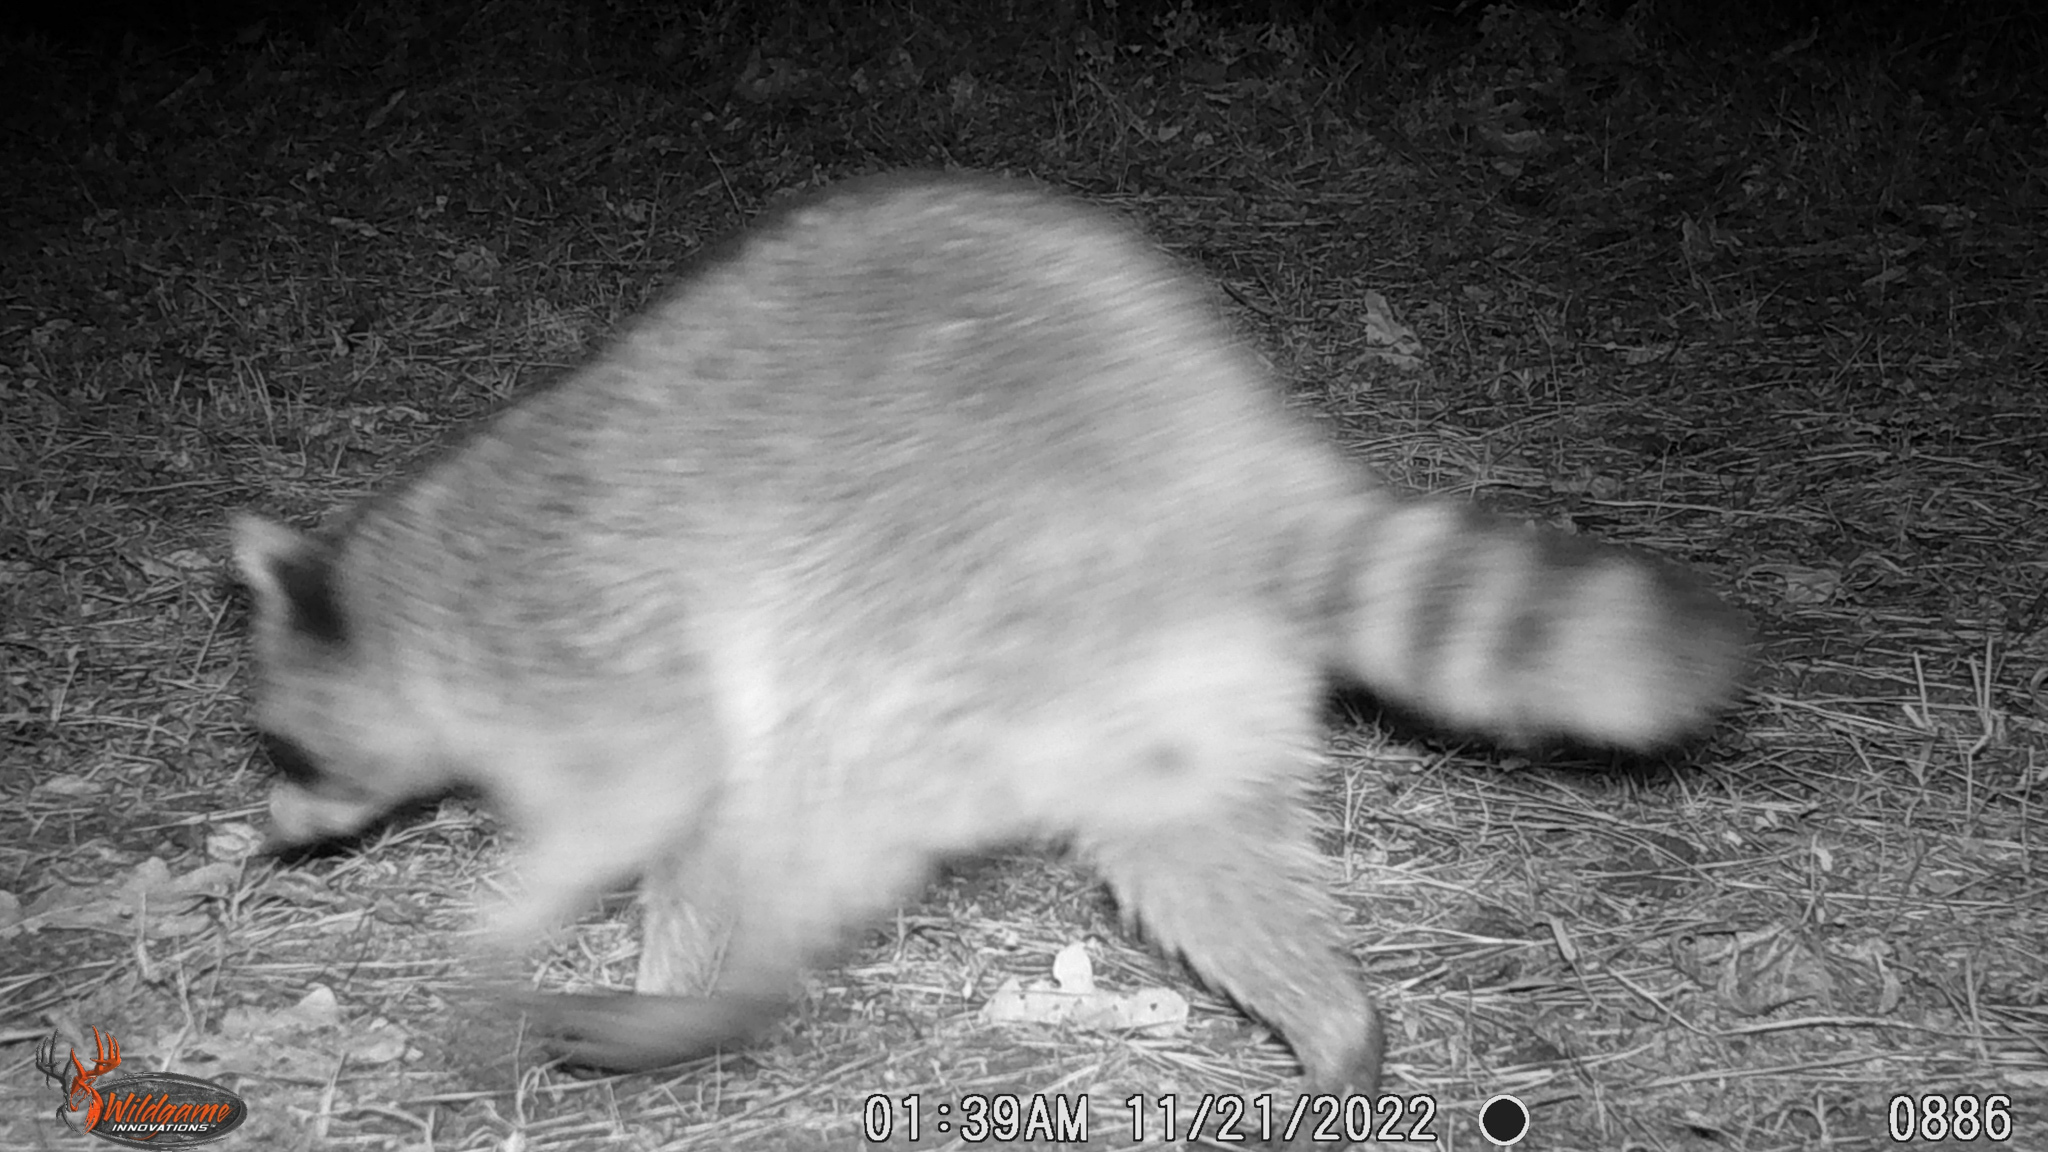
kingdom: Animalia
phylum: Chordata
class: Mammalia
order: Carnivora
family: Procyonidae
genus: Procyon
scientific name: Procyon lotor
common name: Raccoon
